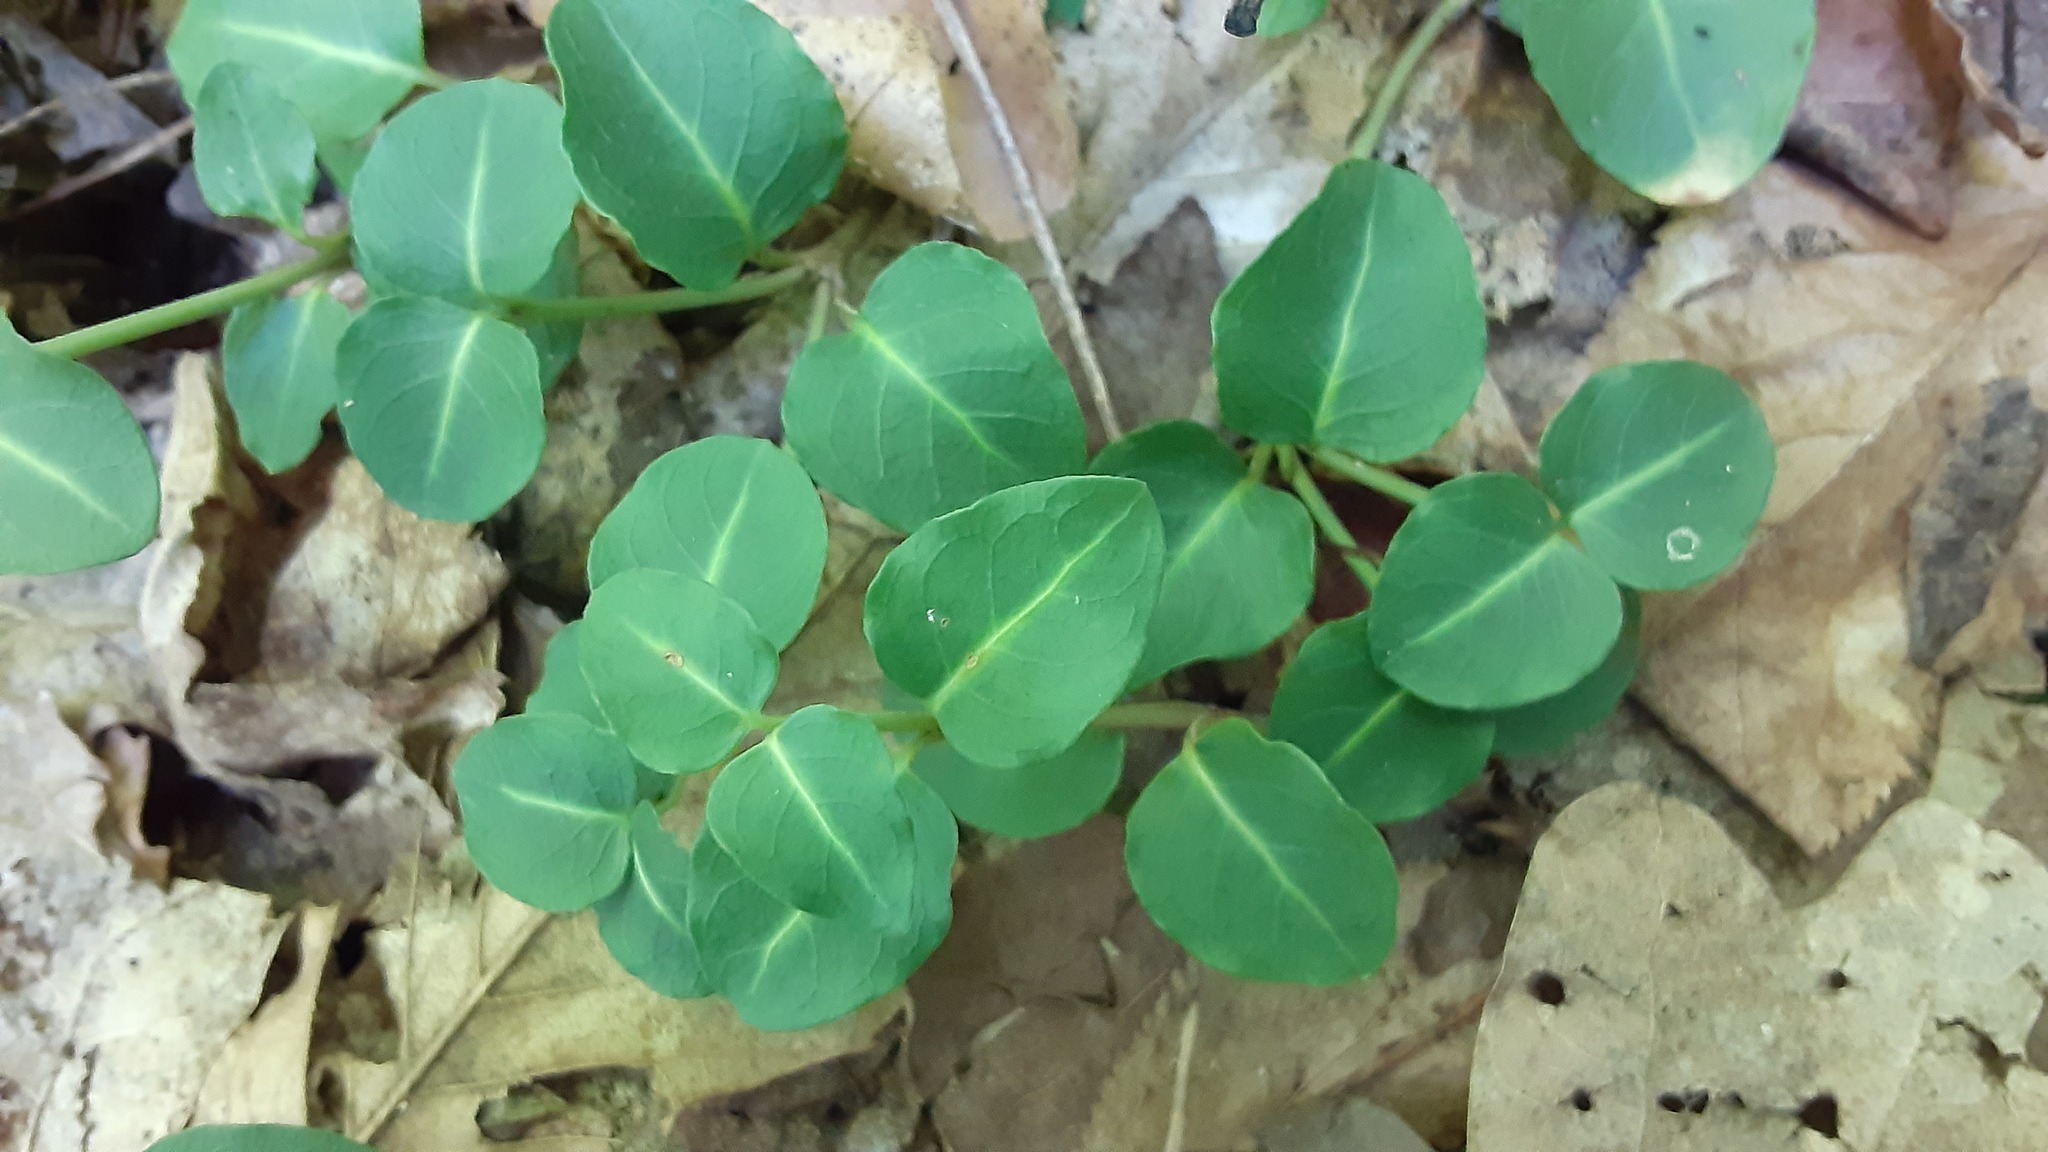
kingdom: Plantae
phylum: Tracheophyta
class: Magnoliopsida
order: Gentianales
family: Rubiaceae
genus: Mitchella
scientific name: Mitchella repens
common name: Partridge-berry
